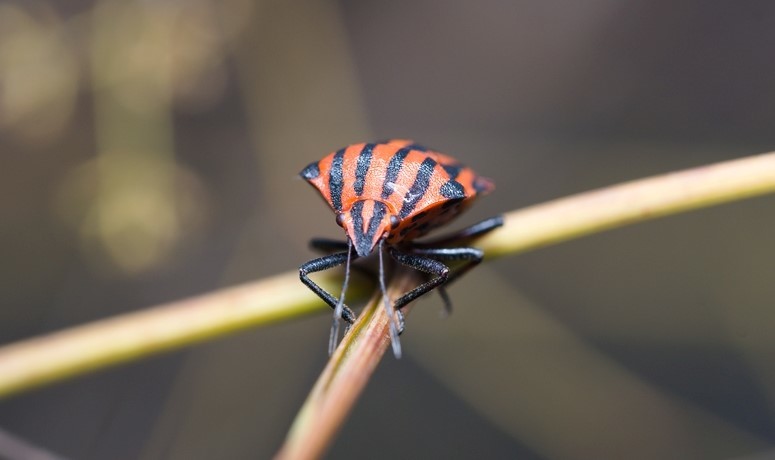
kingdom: Animalia
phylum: Arthropoda
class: Insecta
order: Hemiptera
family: Pentatomidae
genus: Graphosoma
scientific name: Graphosoma italicum
